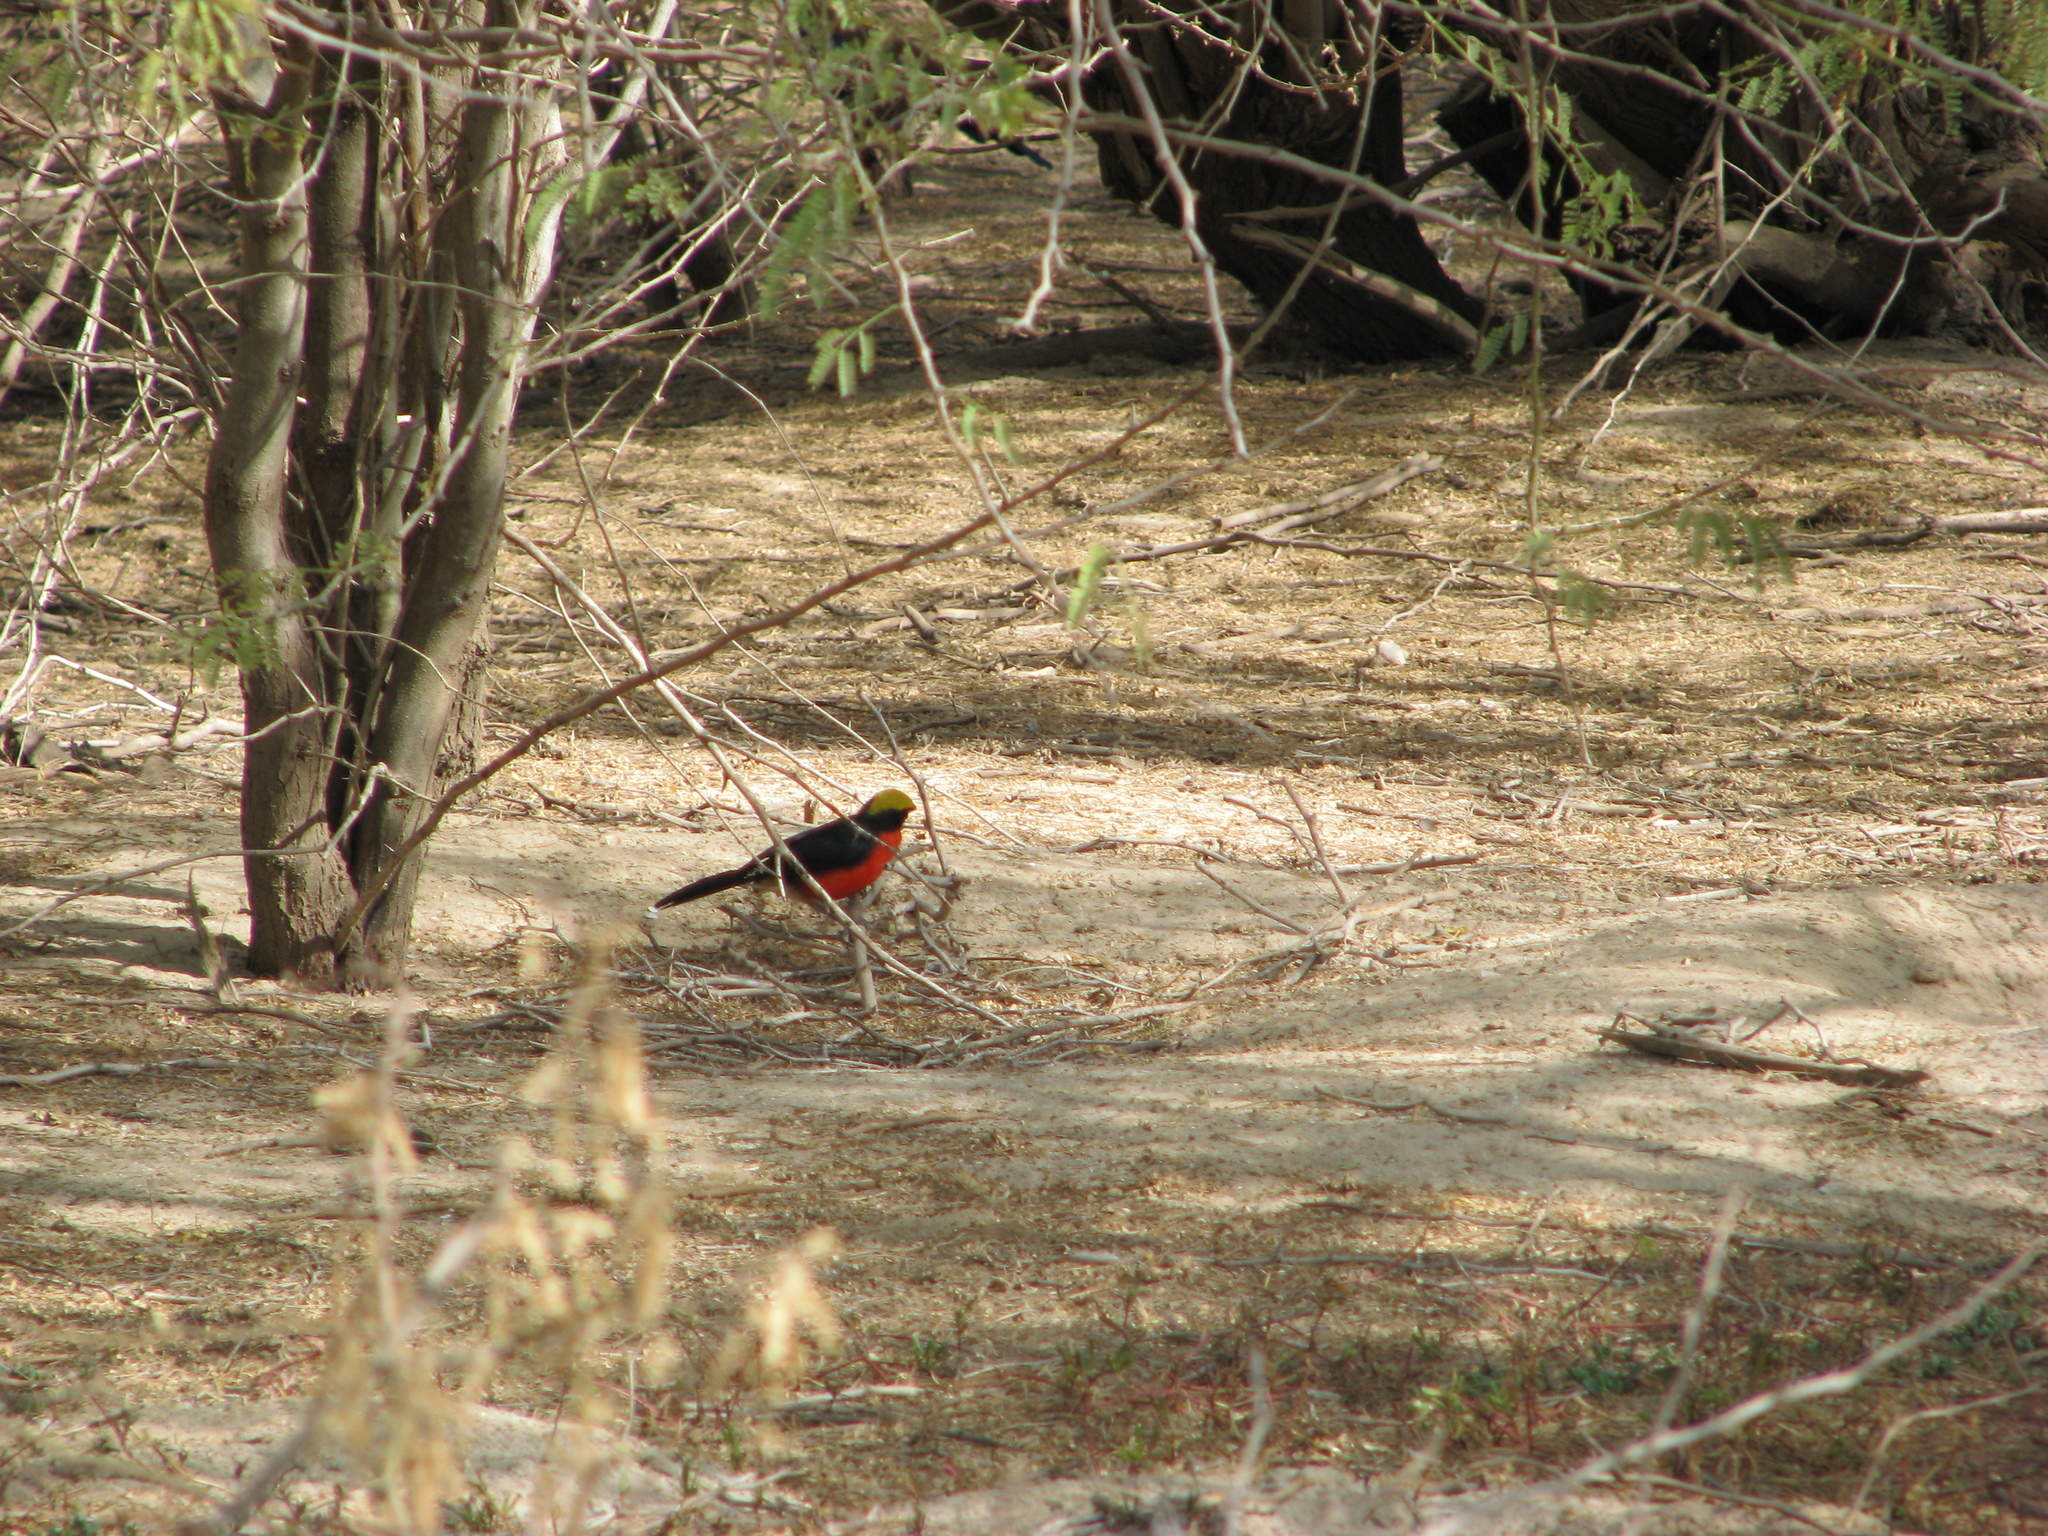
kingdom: Animalia
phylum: Chordata
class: Aves
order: Passeriformes
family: Malaconotidae
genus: Laniarius
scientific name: Laniarius barbarus
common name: Yellow-crowned gonolek
